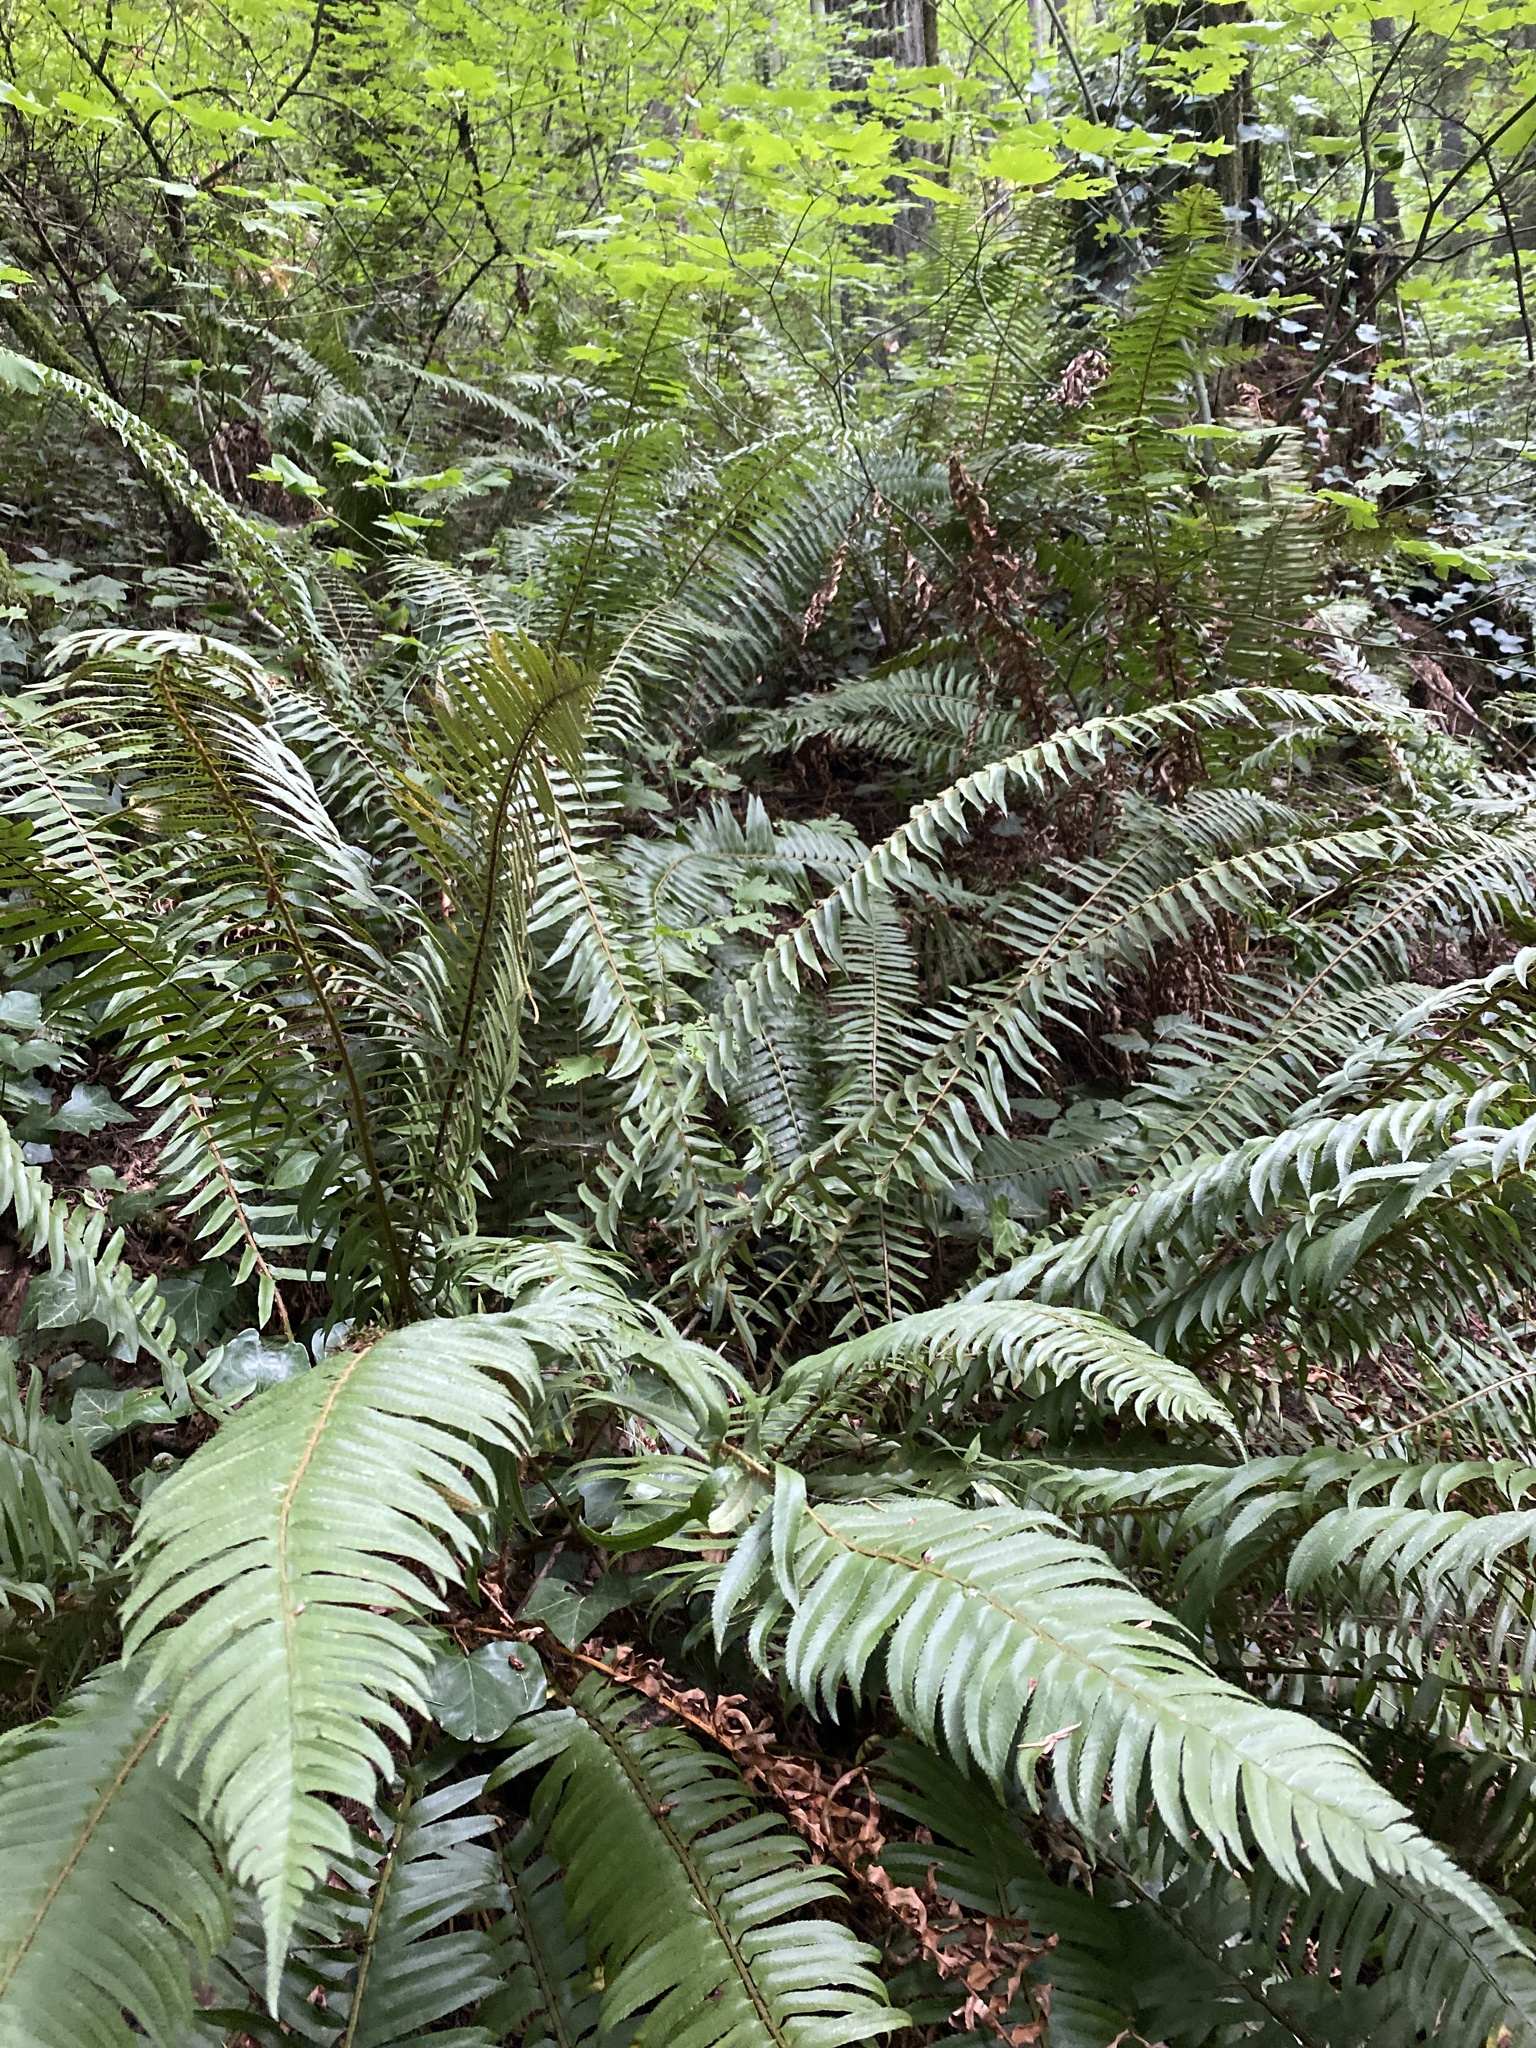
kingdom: Plantae
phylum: Tracheophyta
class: Polypodiopsida
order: Polypodiales
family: Dryopteridaceae
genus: Polystichum
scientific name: Polystichum munitum
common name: Western sword-fern
